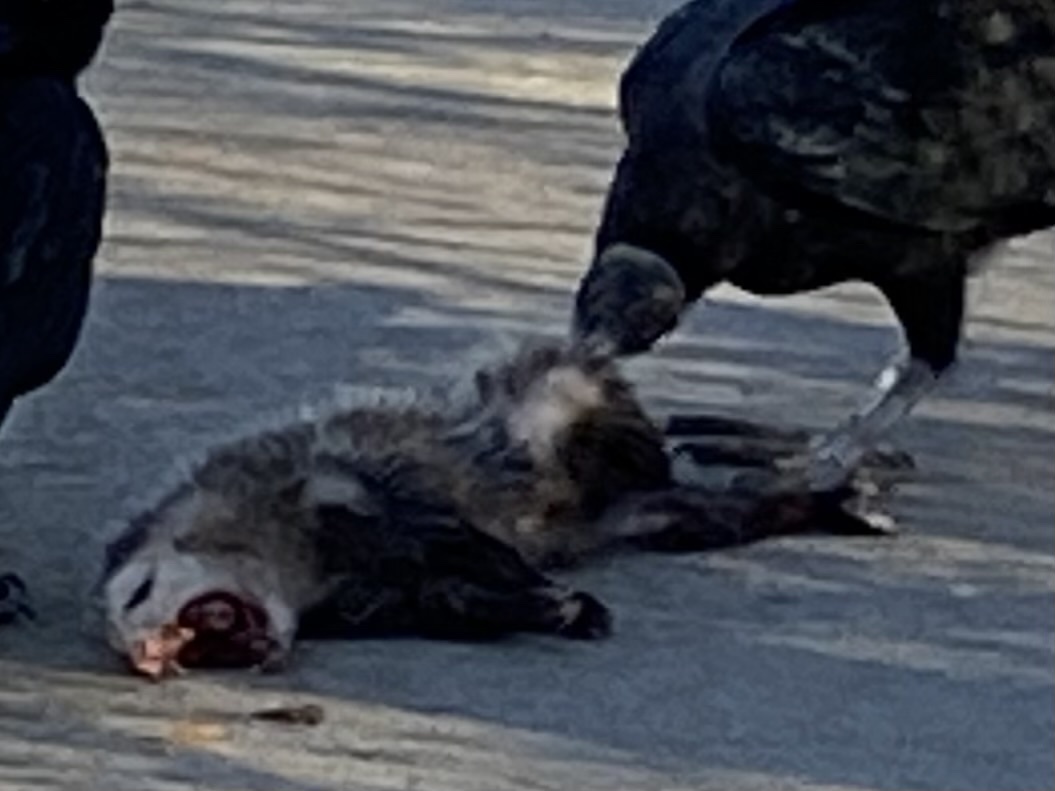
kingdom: Animalia
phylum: Chordata
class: Mammalia
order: Didelphimorphia
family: Didelphidae
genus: Didelphis
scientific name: Didelphis virginiana
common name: Virginia opossum
